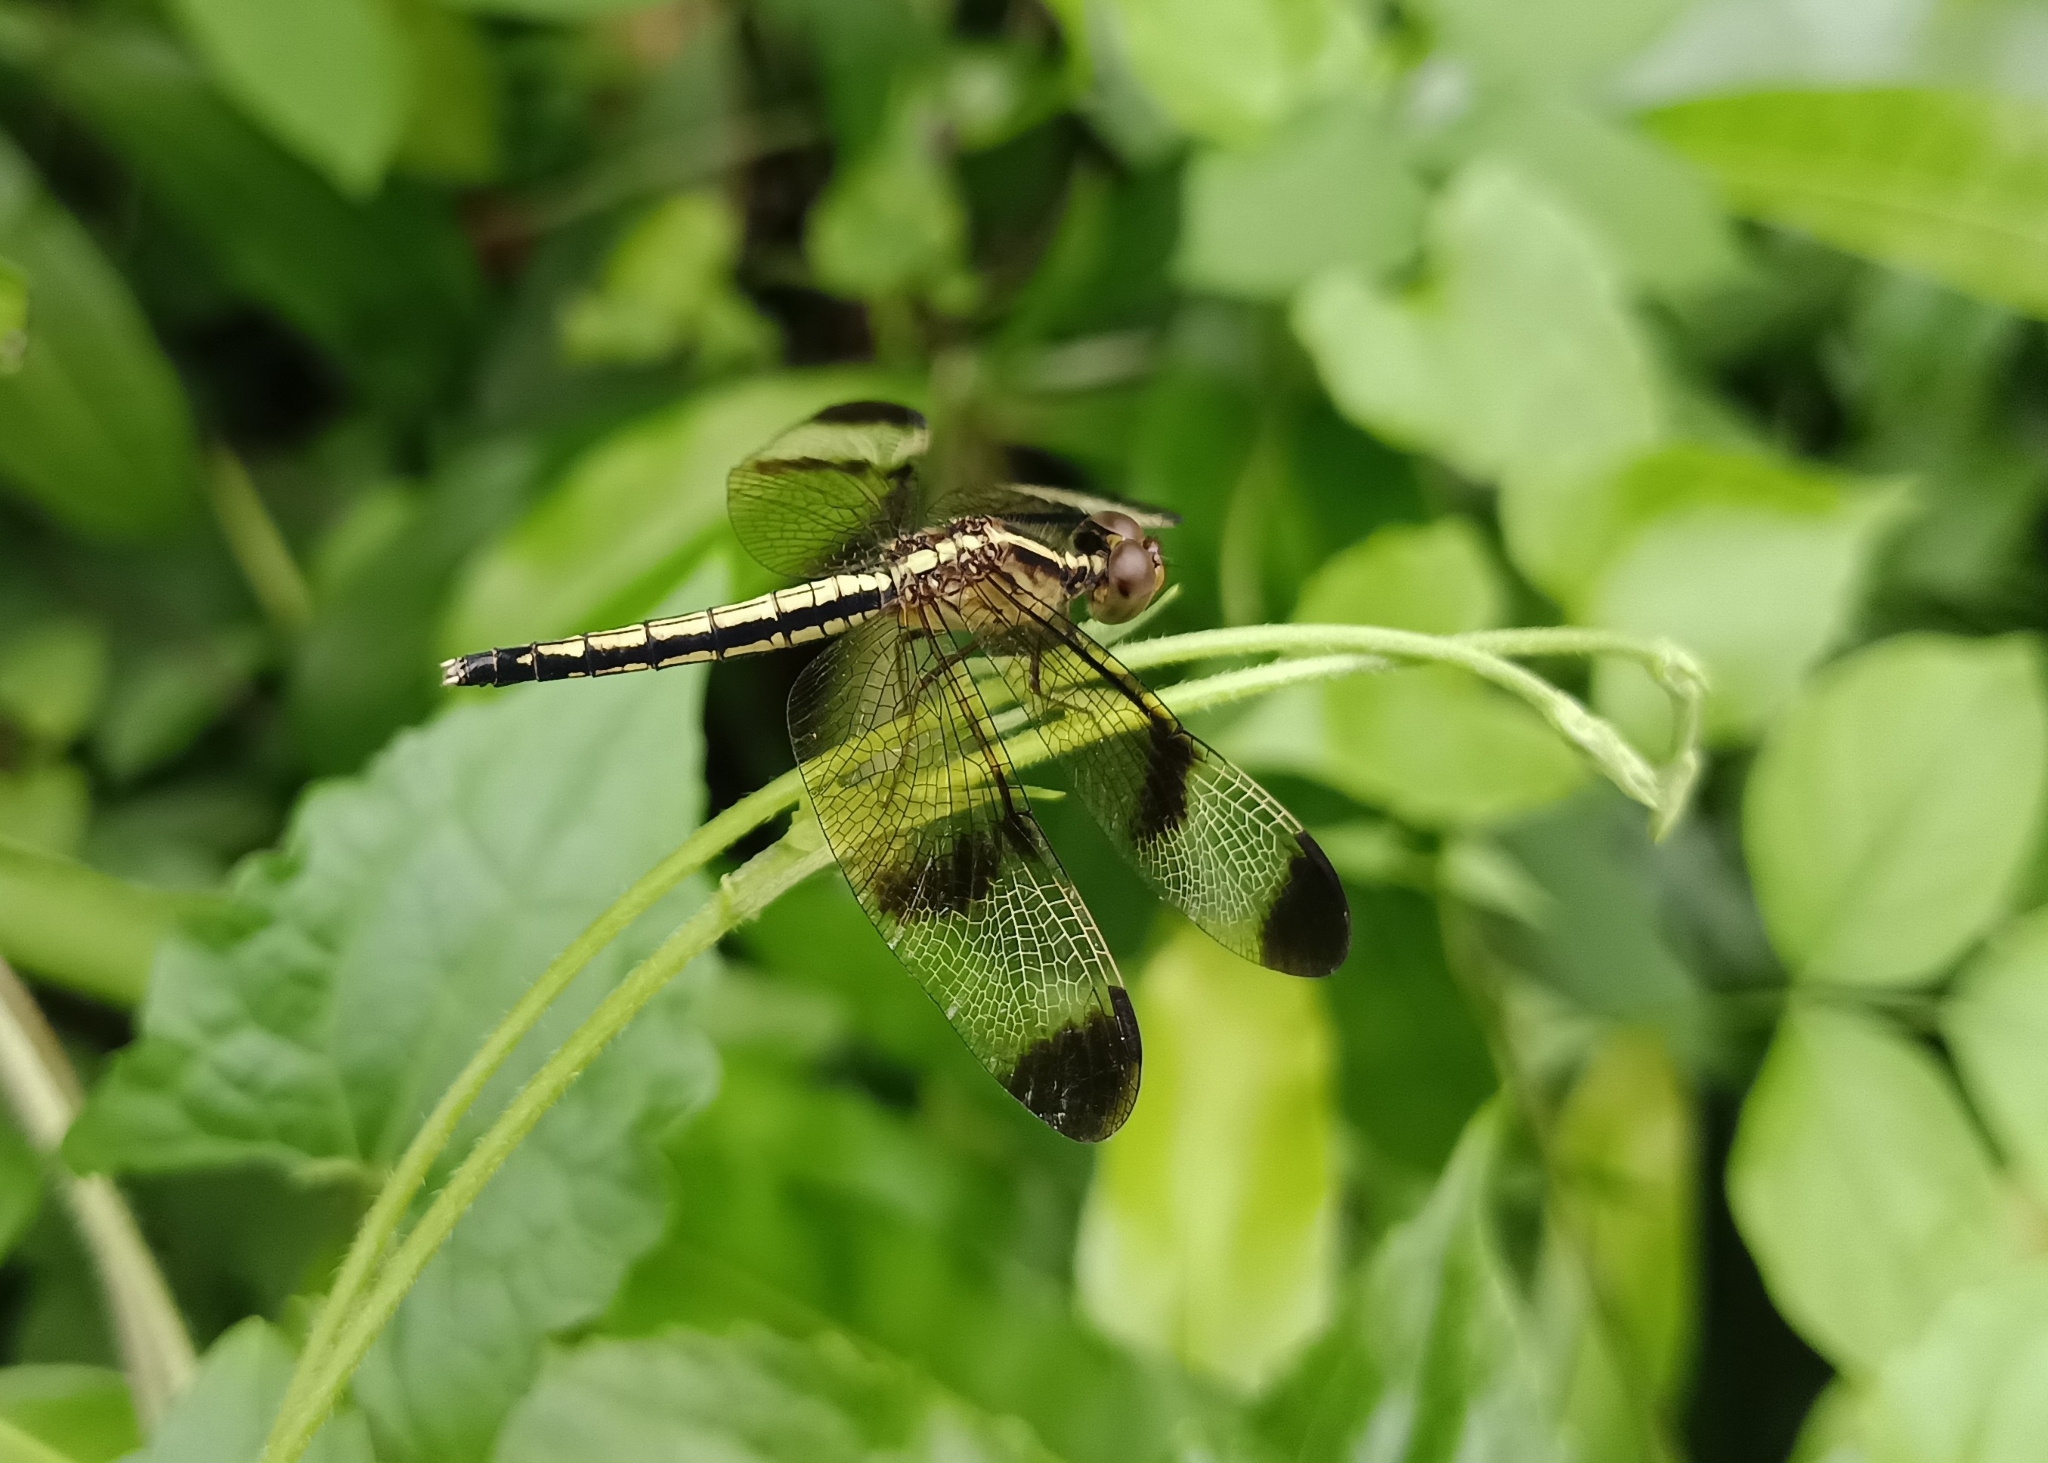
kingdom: Animalia
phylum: Arthropoda
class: Insecta
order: Odonata
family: Libellulidae
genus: Neurothemis
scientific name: Neurothemis tullia
